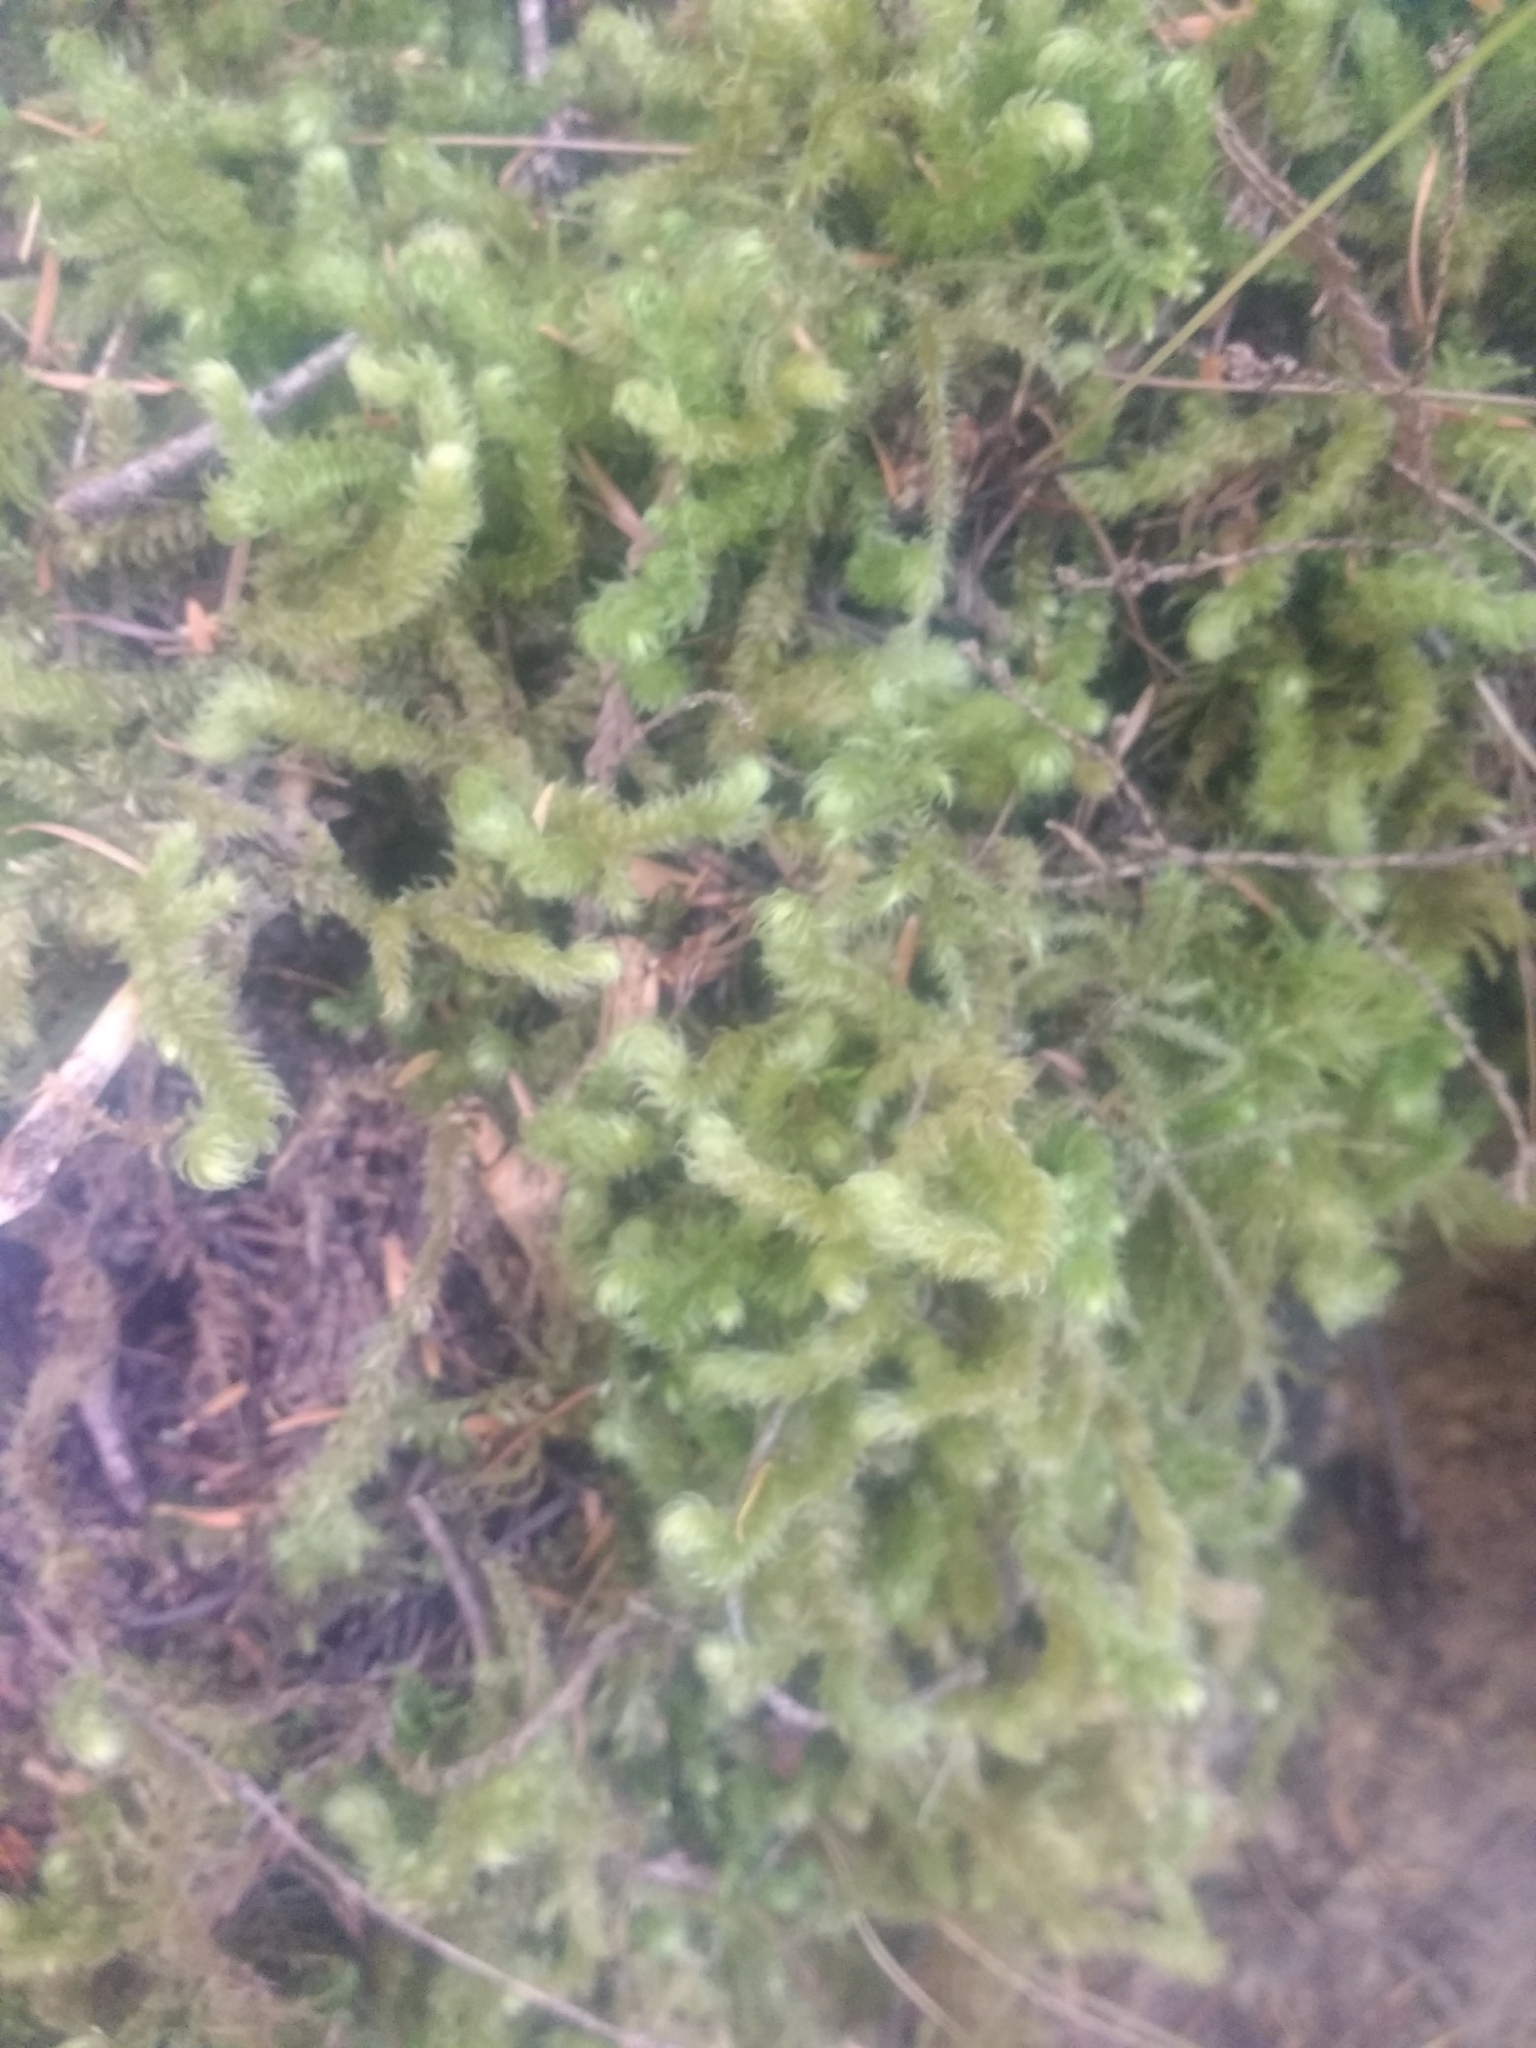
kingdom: Plantae
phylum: Bryophyta
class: Bryopsida
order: Hypnales
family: Hylocomiaceae
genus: Rhytidiopsis
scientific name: Rhytidiopsis robusta
